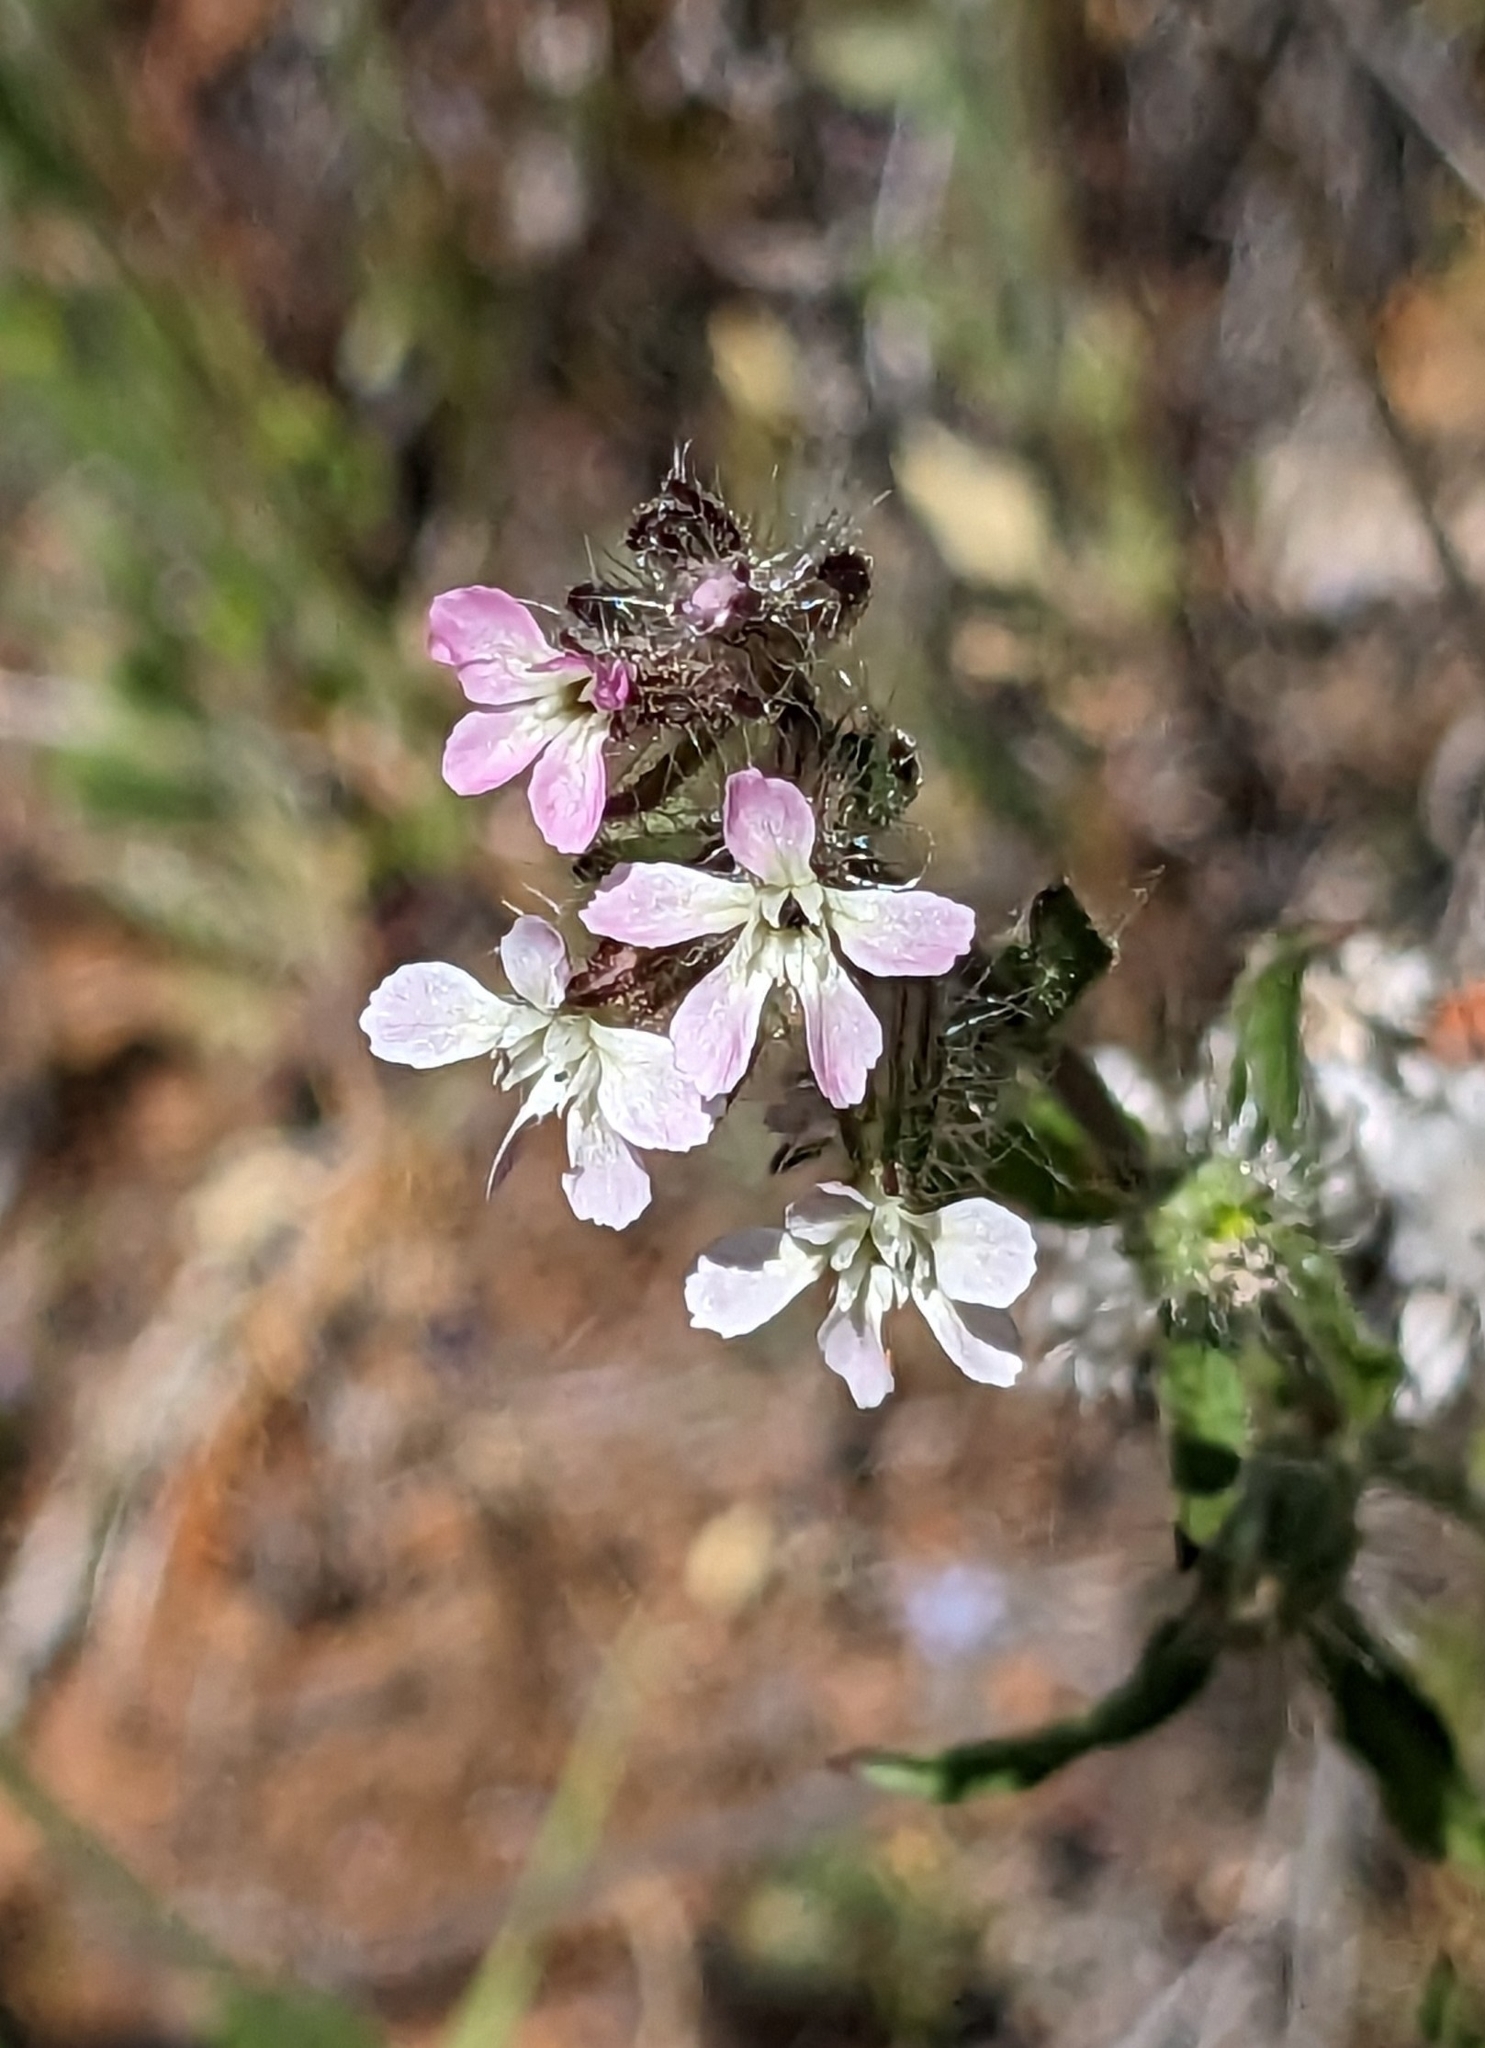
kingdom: Plantae
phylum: Tracheophyta
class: Magnoliopsida
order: Caryophyllales
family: Caryophyllaceae
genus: Silene
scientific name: Silene gallica
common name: Small-flowered catchfly
